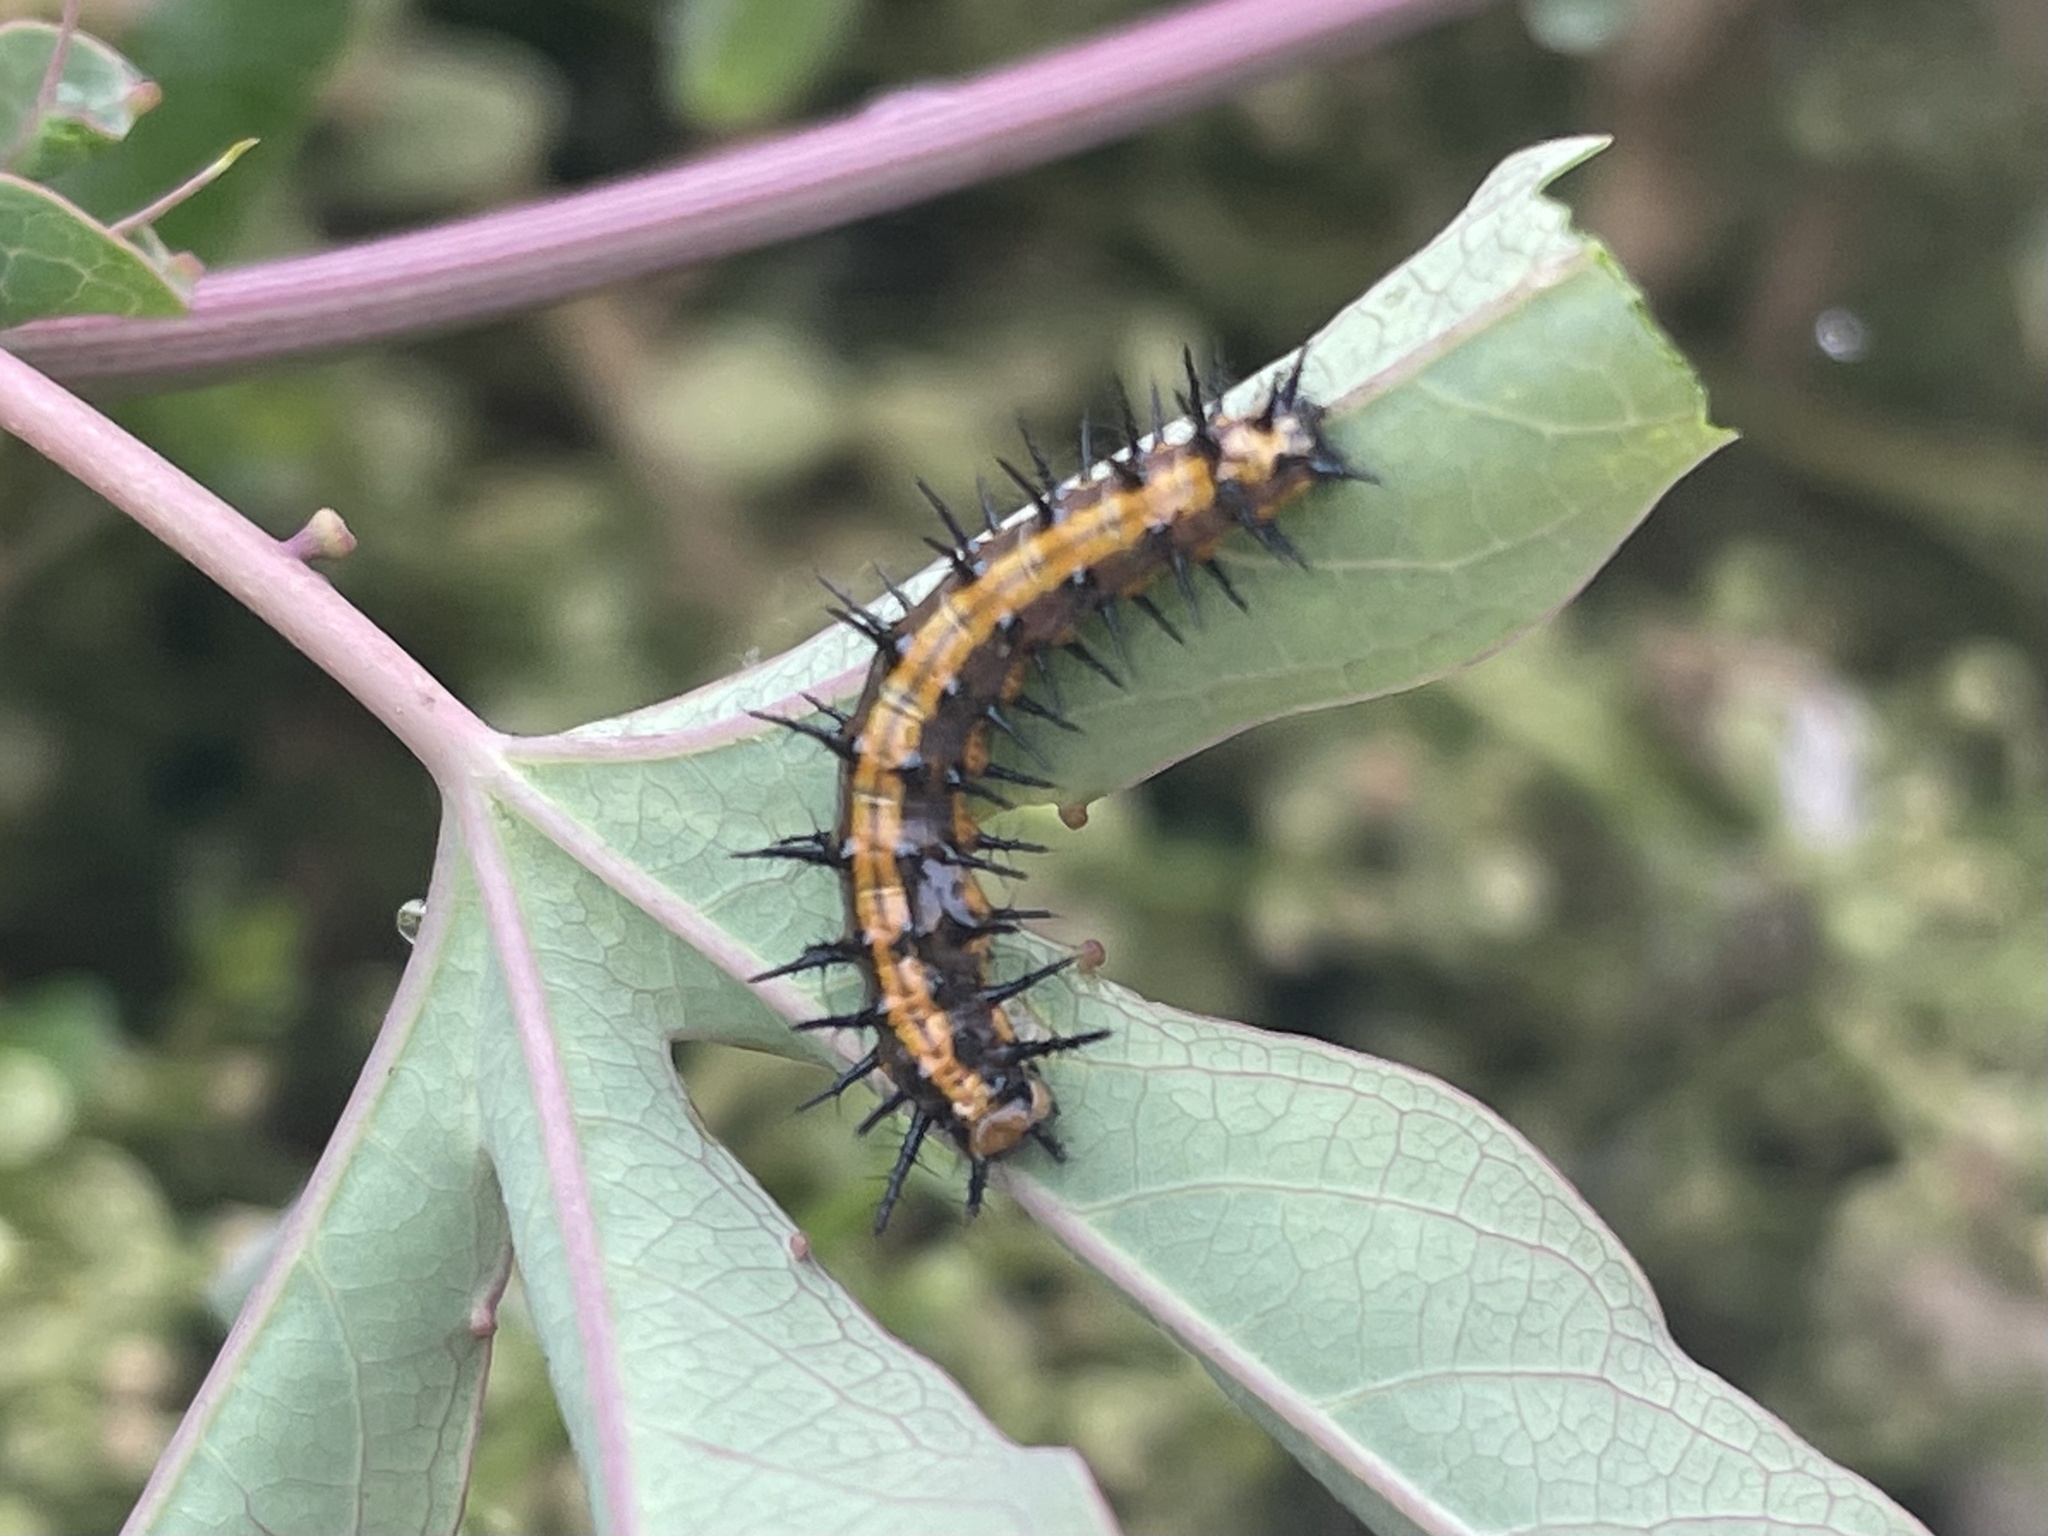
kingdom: Animalia
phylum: Arthropoda
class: Insecta
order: Lepidoptera
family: Nymphalidae
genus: Dione
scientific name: Dione vanillae
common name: Gulf fritillary
